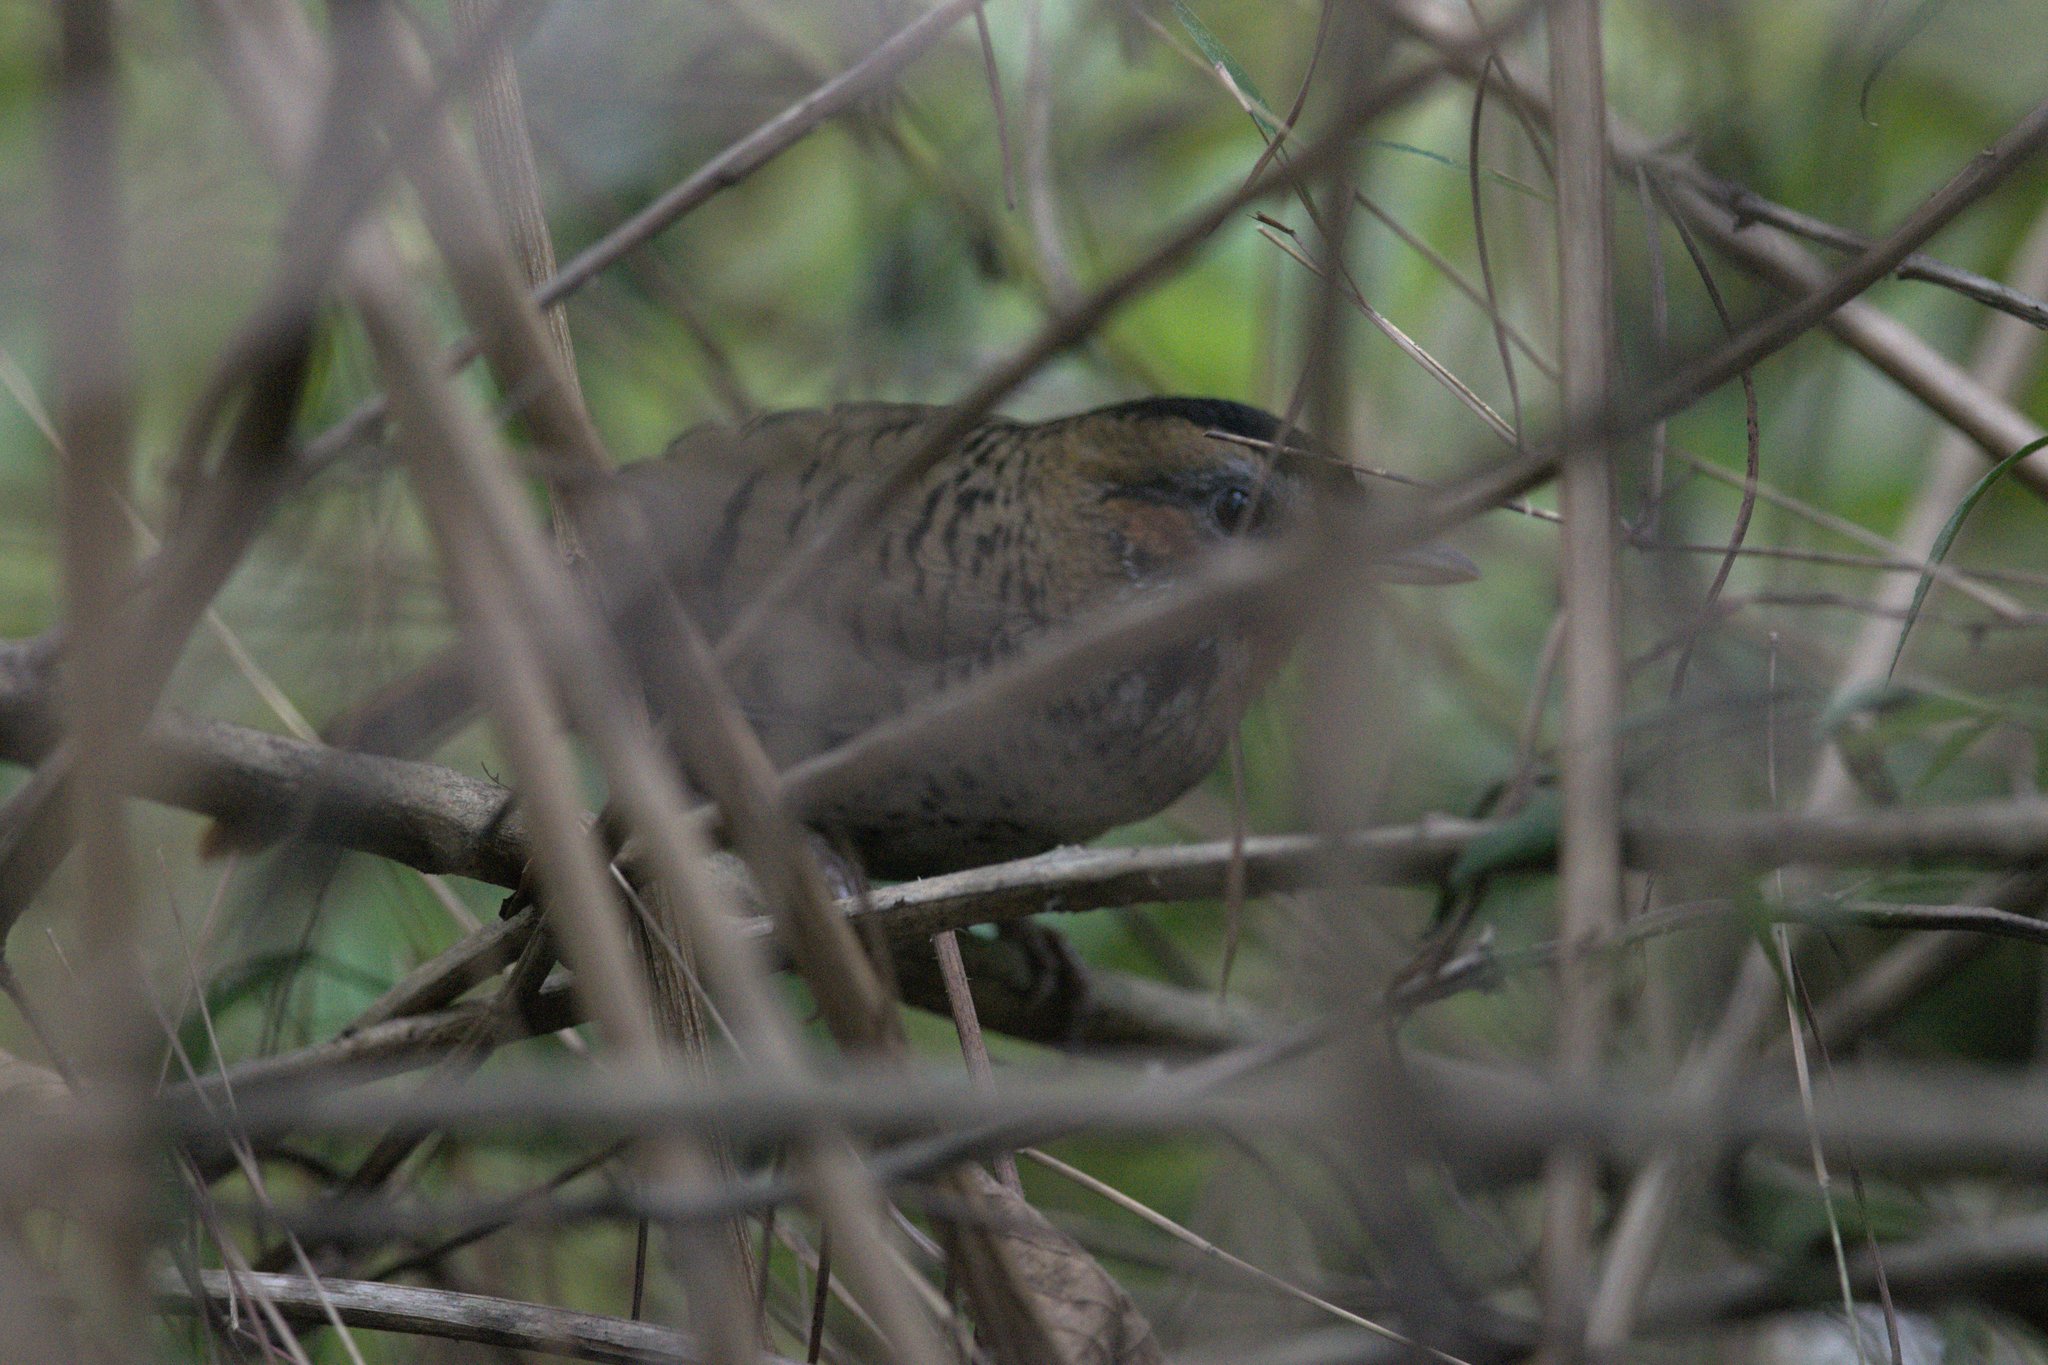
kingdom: Animalia
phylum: Chordata
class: Aves
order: Passeriformes
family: Leiothrichidae
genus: Garrulax
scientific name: Garrulax rufogularis
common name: Rufous-chinned laughingthrush
